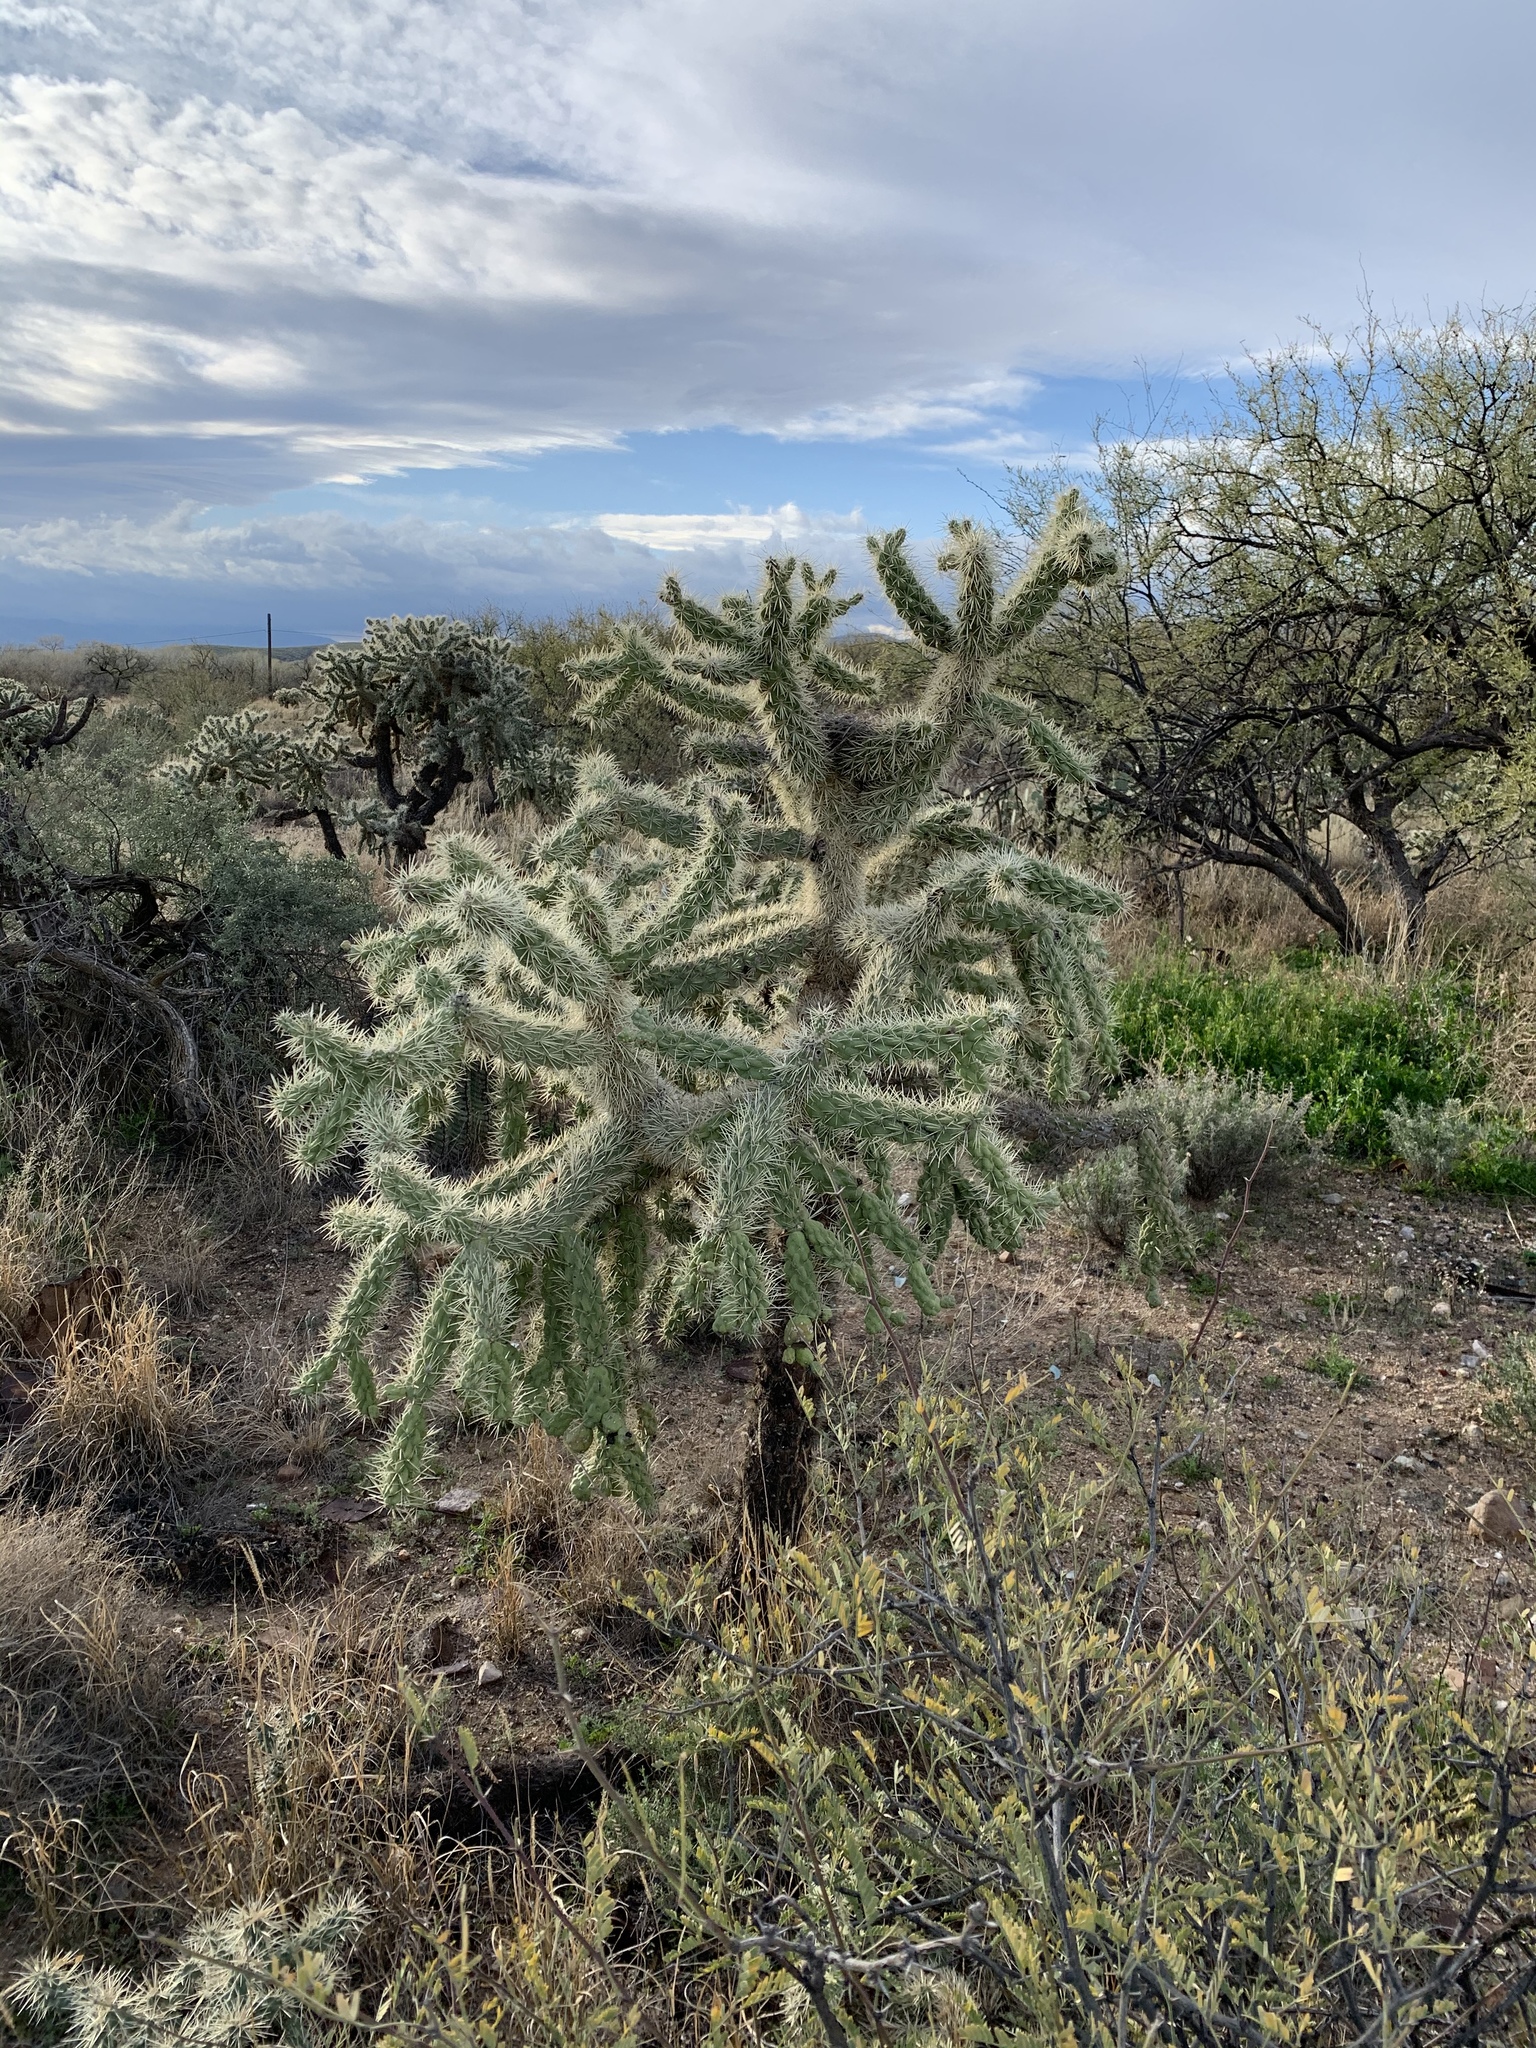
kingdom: Plantae
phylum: Tracheophyta
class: Magnoliopsida
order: Caryophyllales
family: Cactaceae
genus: Cylindropuntia
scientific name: Cylindropuntia fulgida
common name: Jumping cholla
